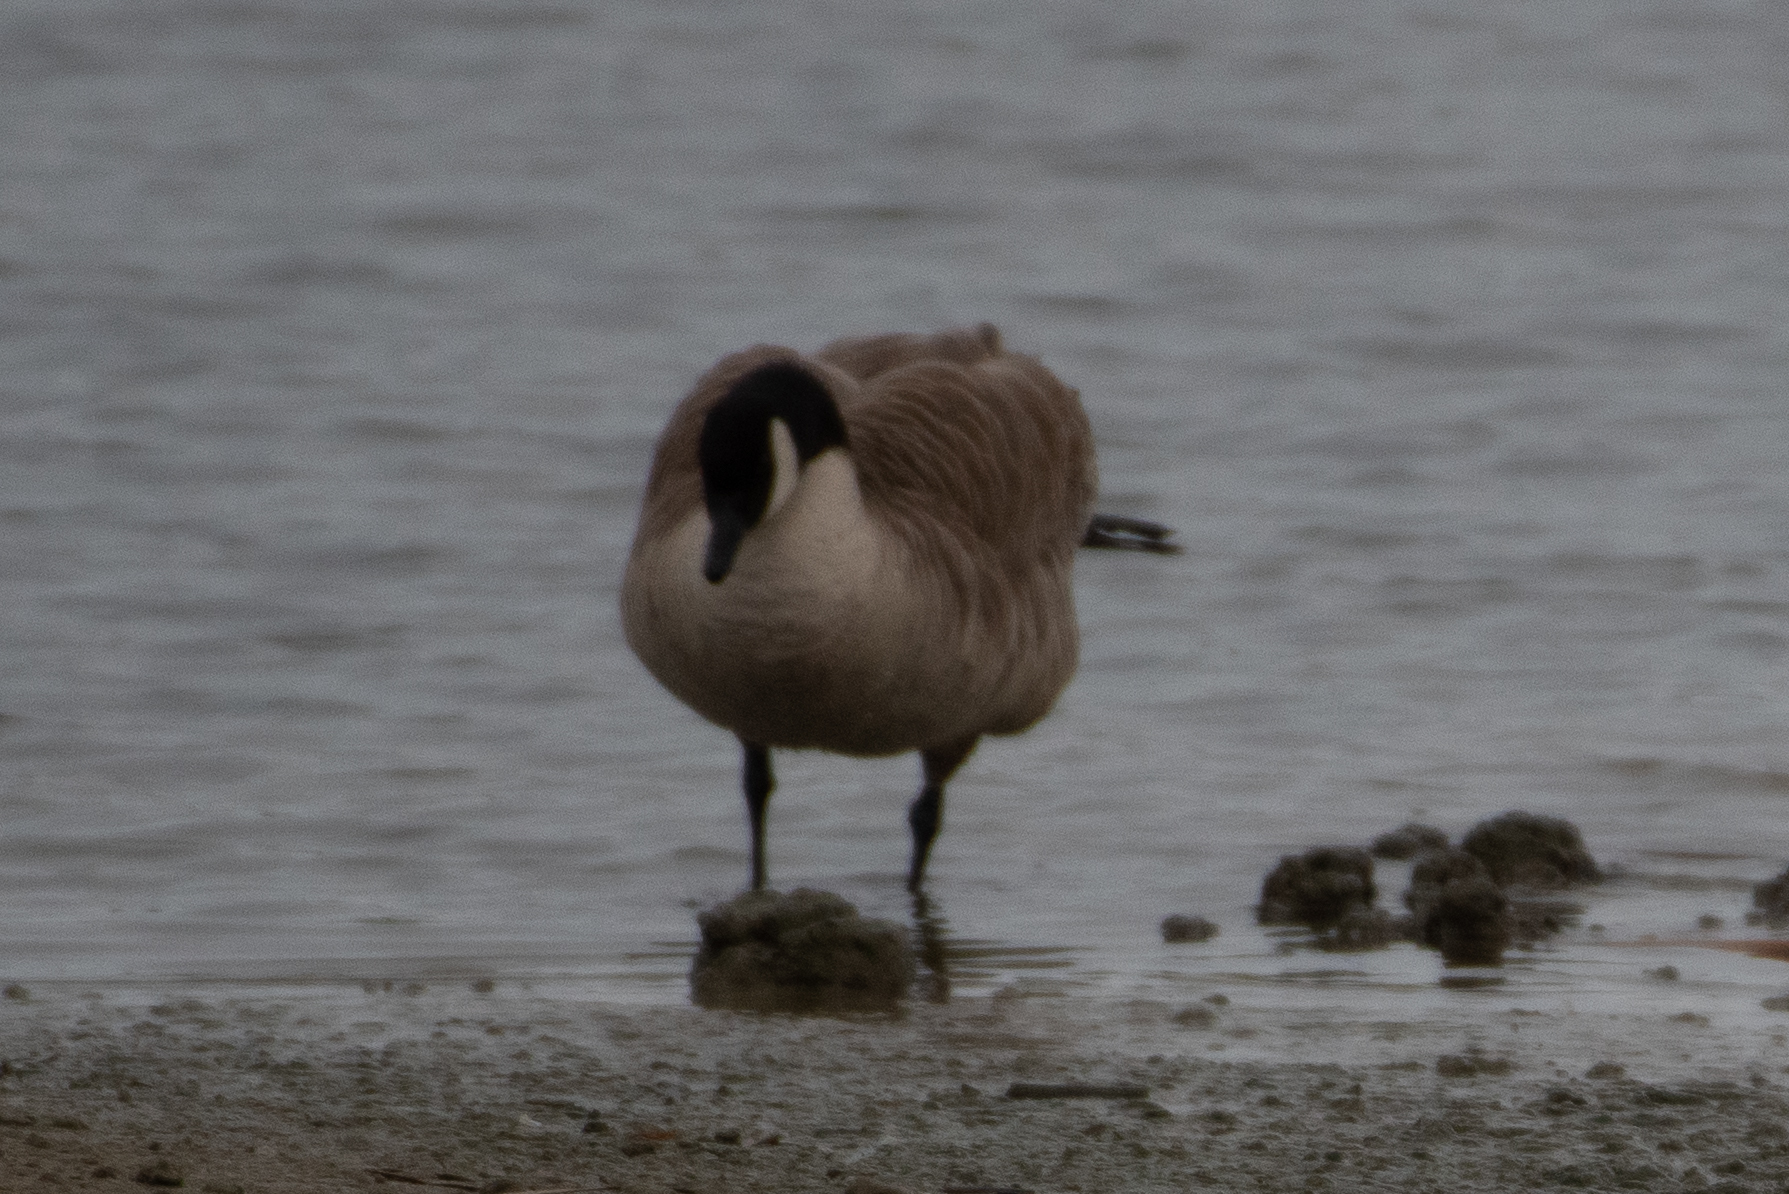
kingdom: Animalia
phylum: Chordata
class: Aves
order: Anseriformes
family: Anatidae
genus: Branta
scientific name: Branta canadensis
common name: Canada goose
